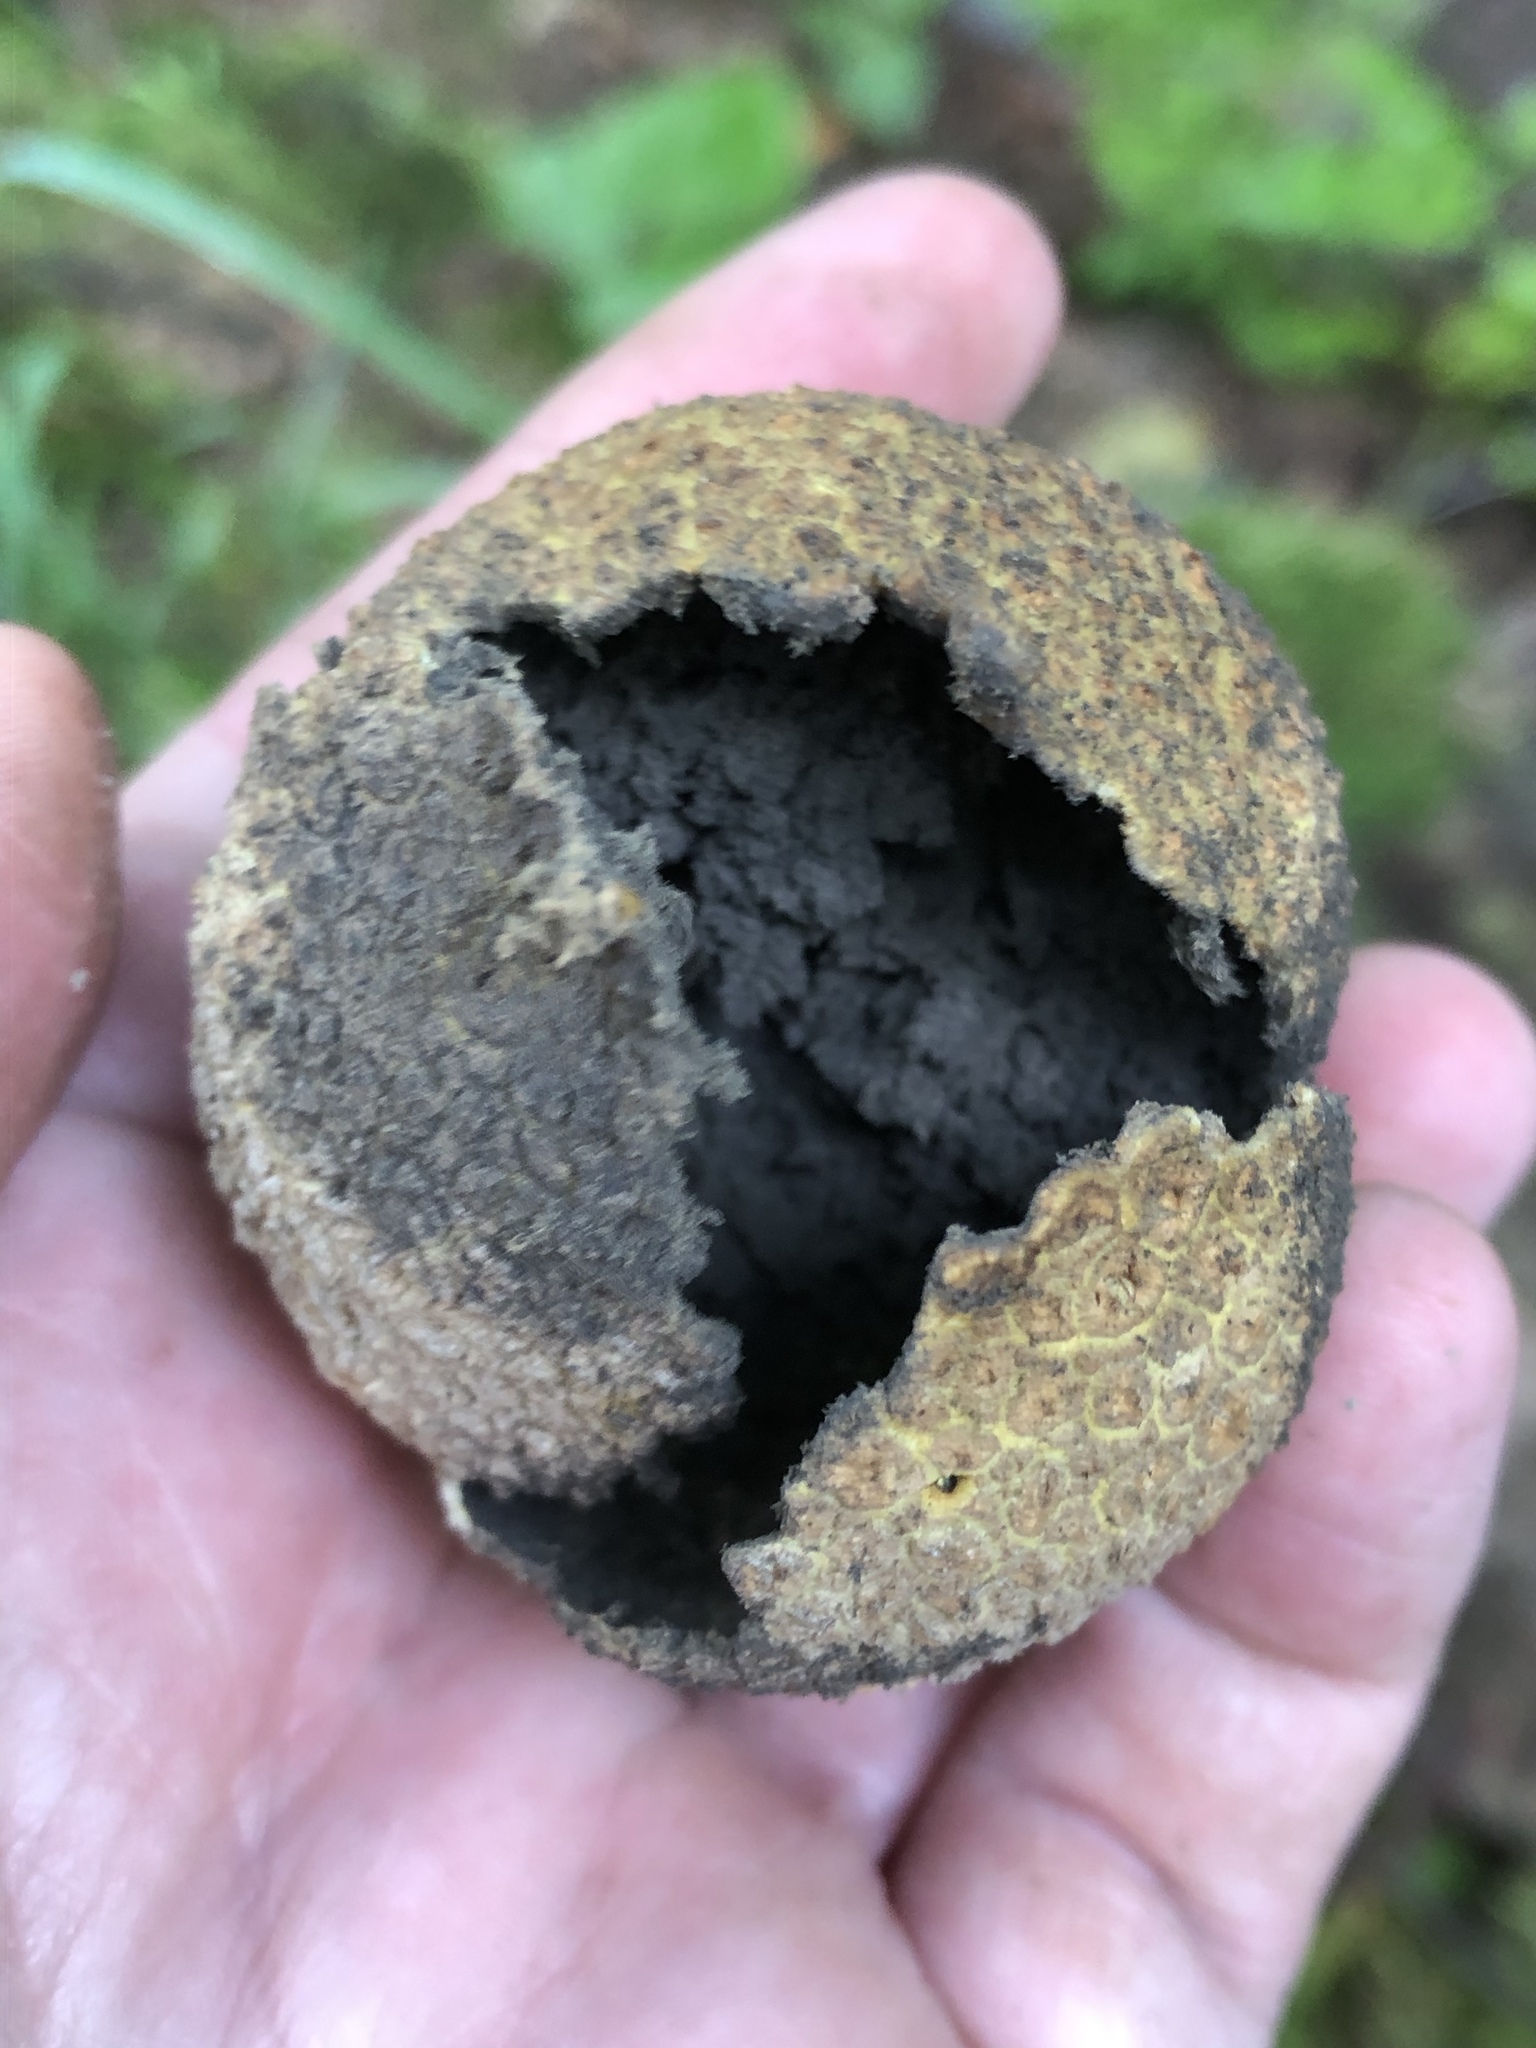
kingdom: Fungi
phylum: Basidiomycota
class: Agaricomycetes
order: Boletales
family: Sclerodermataceae
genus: Scleroderma
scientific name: Scleroderma citrinum
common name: Common earthball
